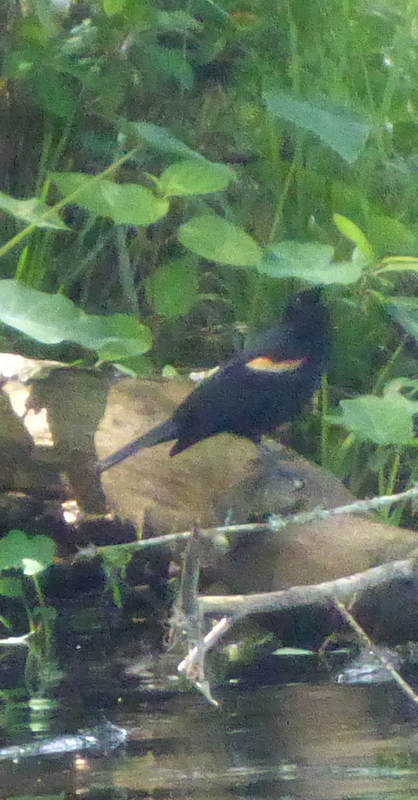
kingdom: Animalia
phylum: Chordata
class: Aves
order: Passeriformes
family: Icteridae
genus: Agelaius
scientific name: Agelaius phoeniceus
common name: Red-winged blackbird
